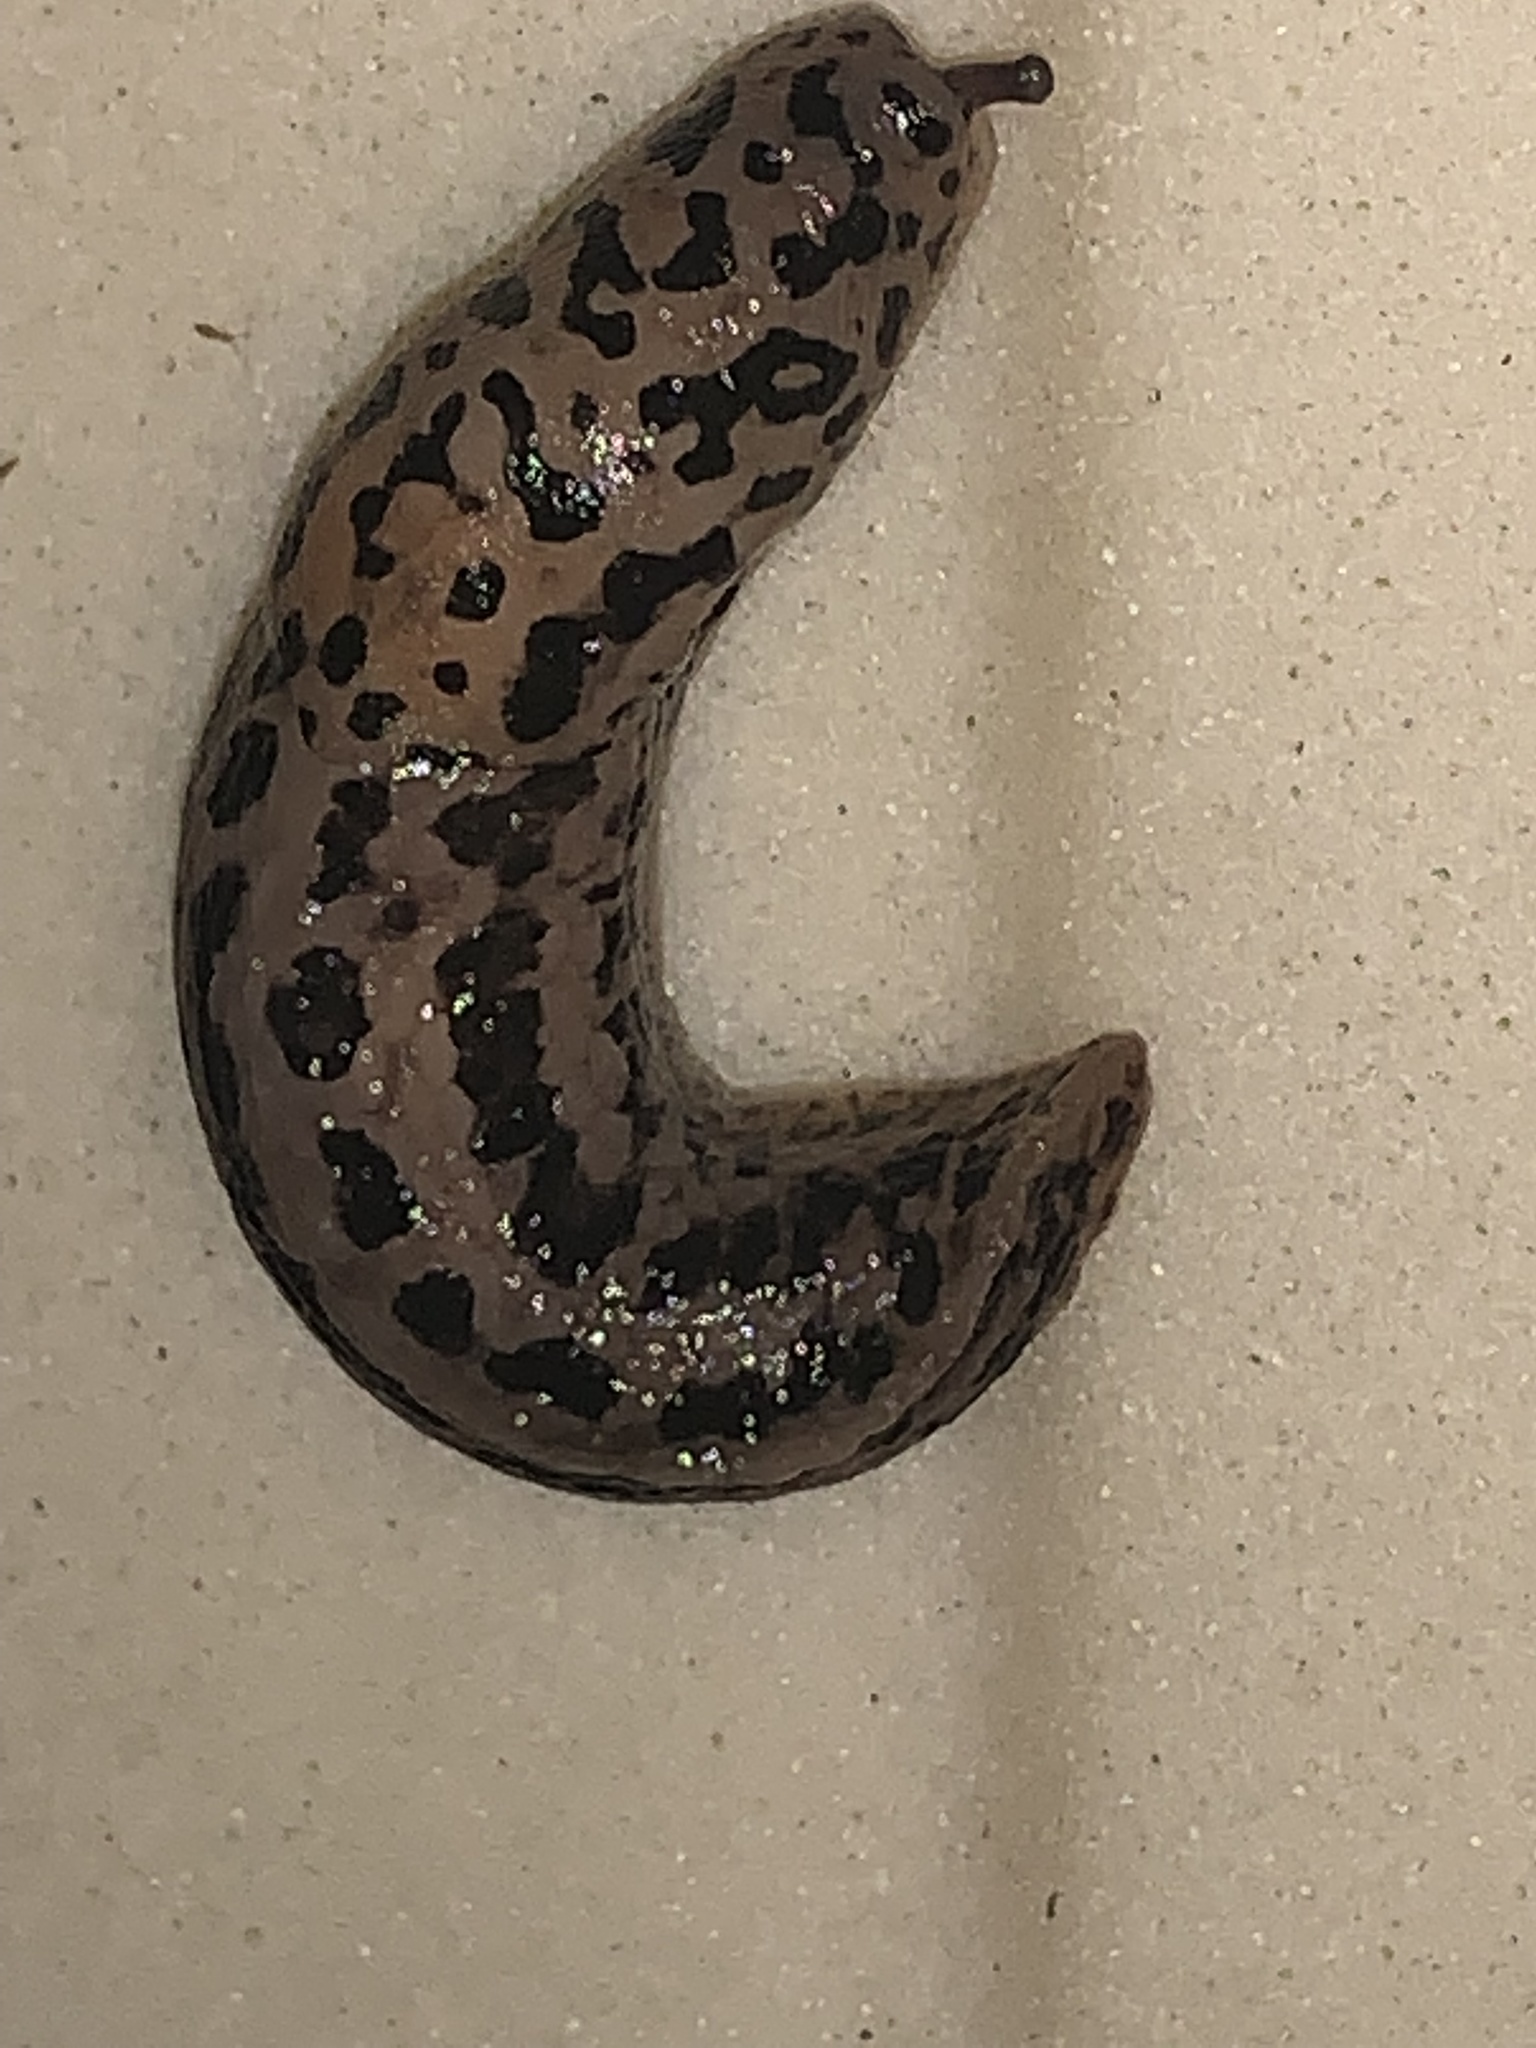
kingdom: Animalia
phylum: Mollusca
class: Gastropoda
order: Stylommatophora
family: Limacidae
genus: Limax
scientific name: Limax maximus
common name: Great grey slug
